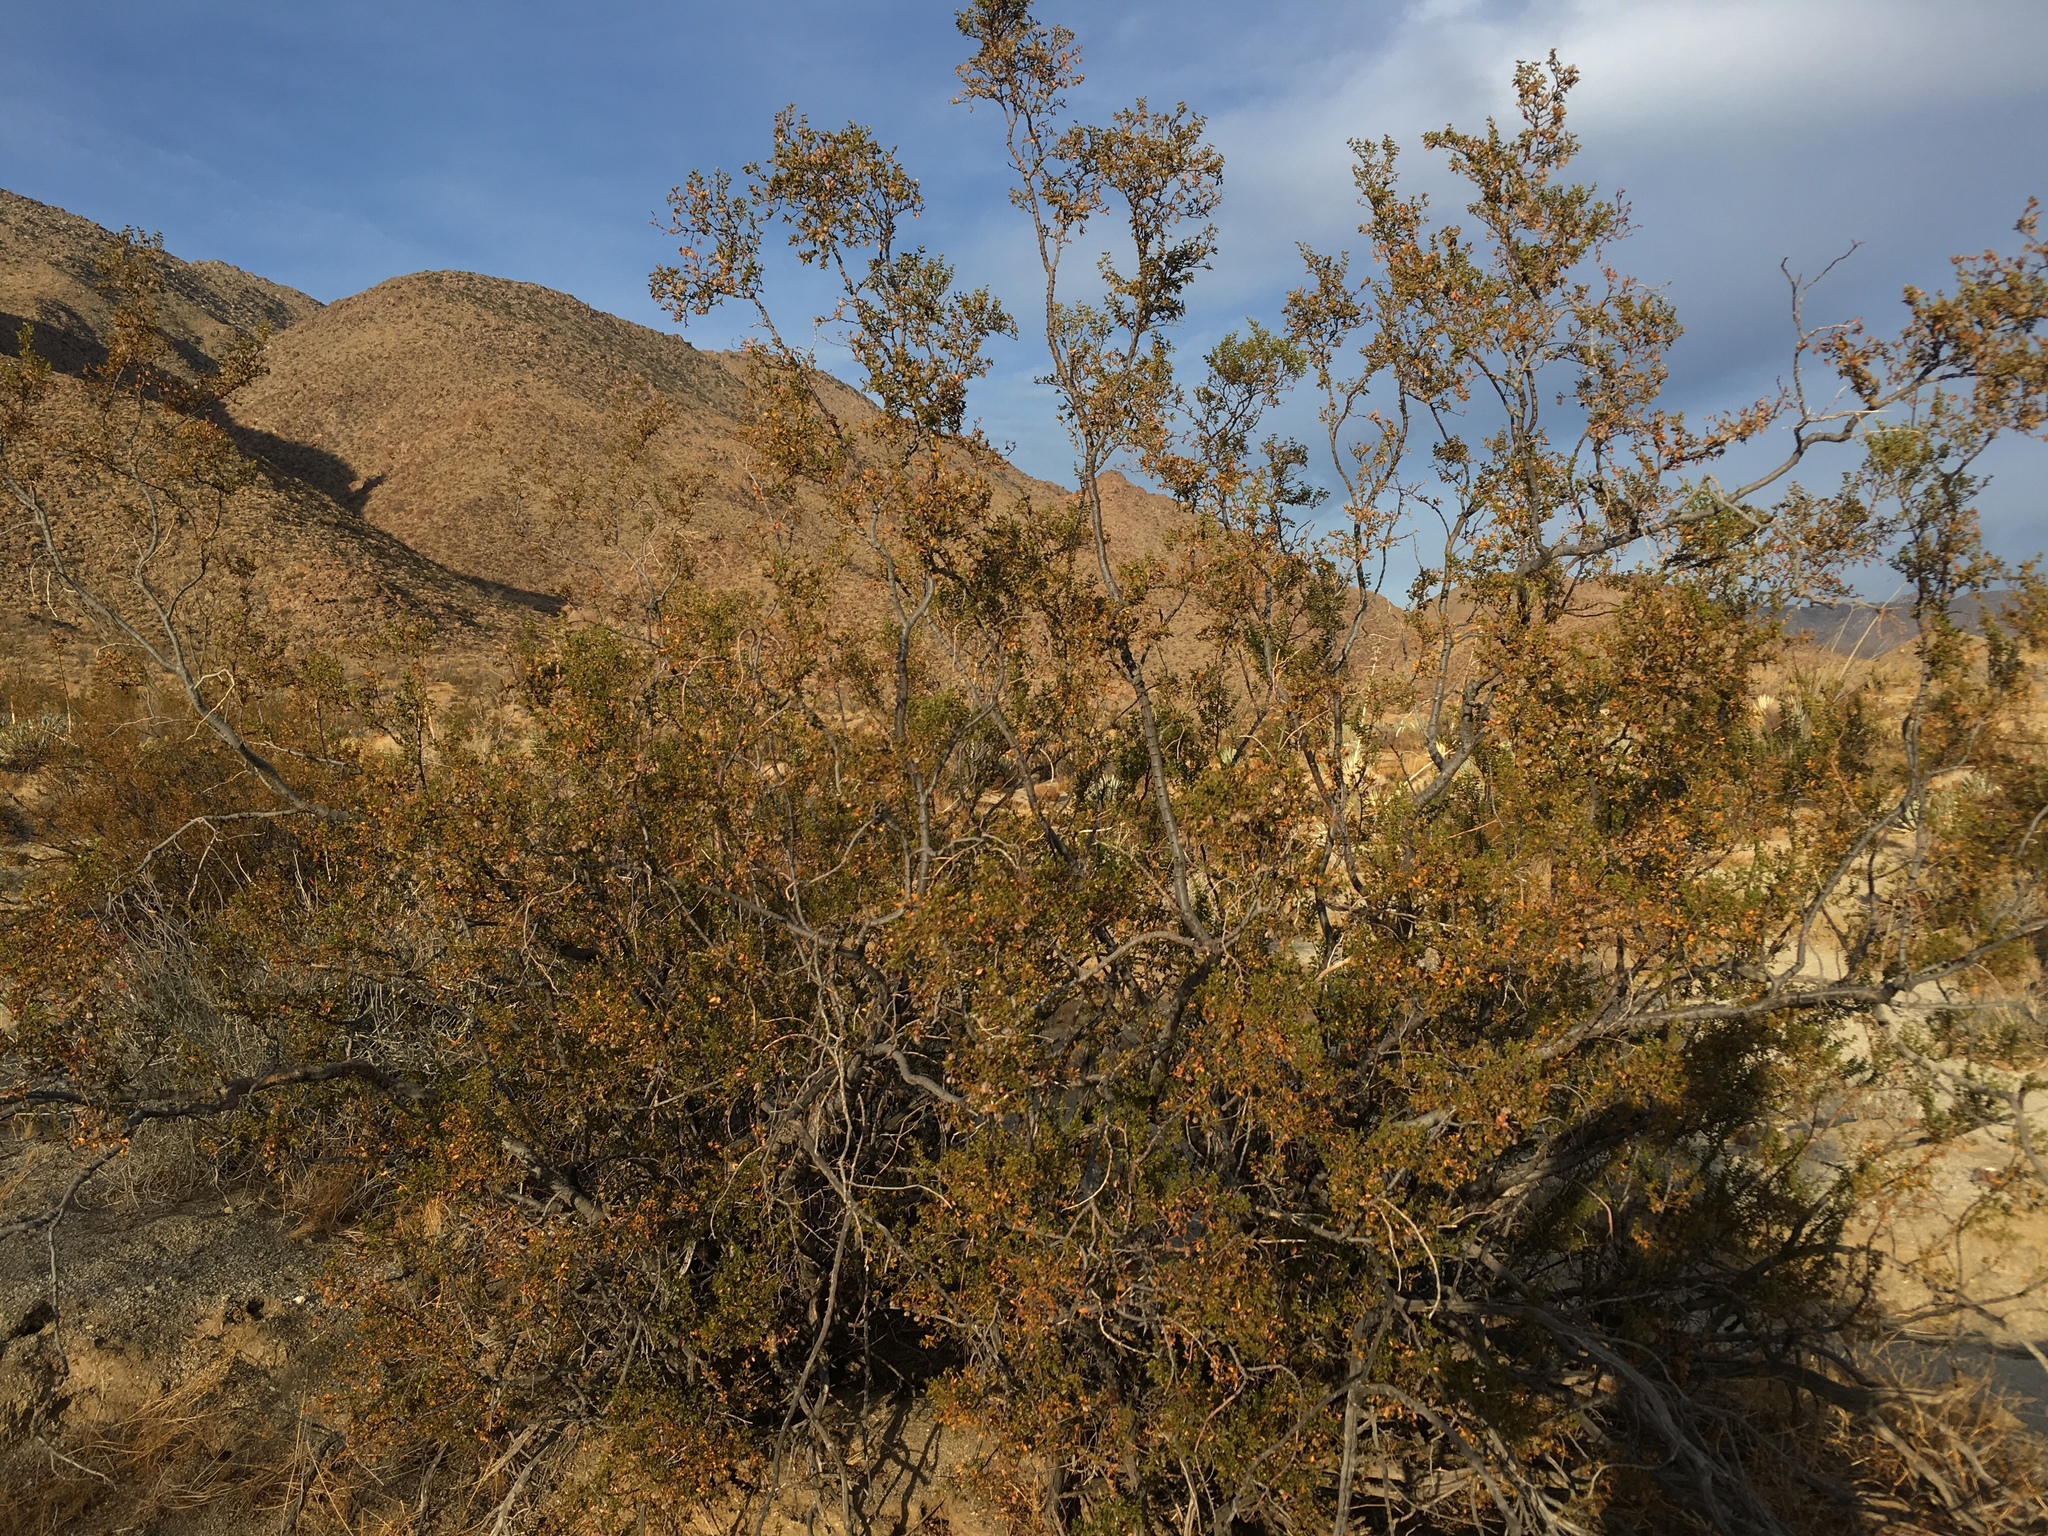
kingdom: Plantae
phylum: Tracheophyta
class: Magnoliopsida
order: Zygophyllales
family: Zygophyllaceae
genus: Larrea
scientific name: Larrea tridentata
